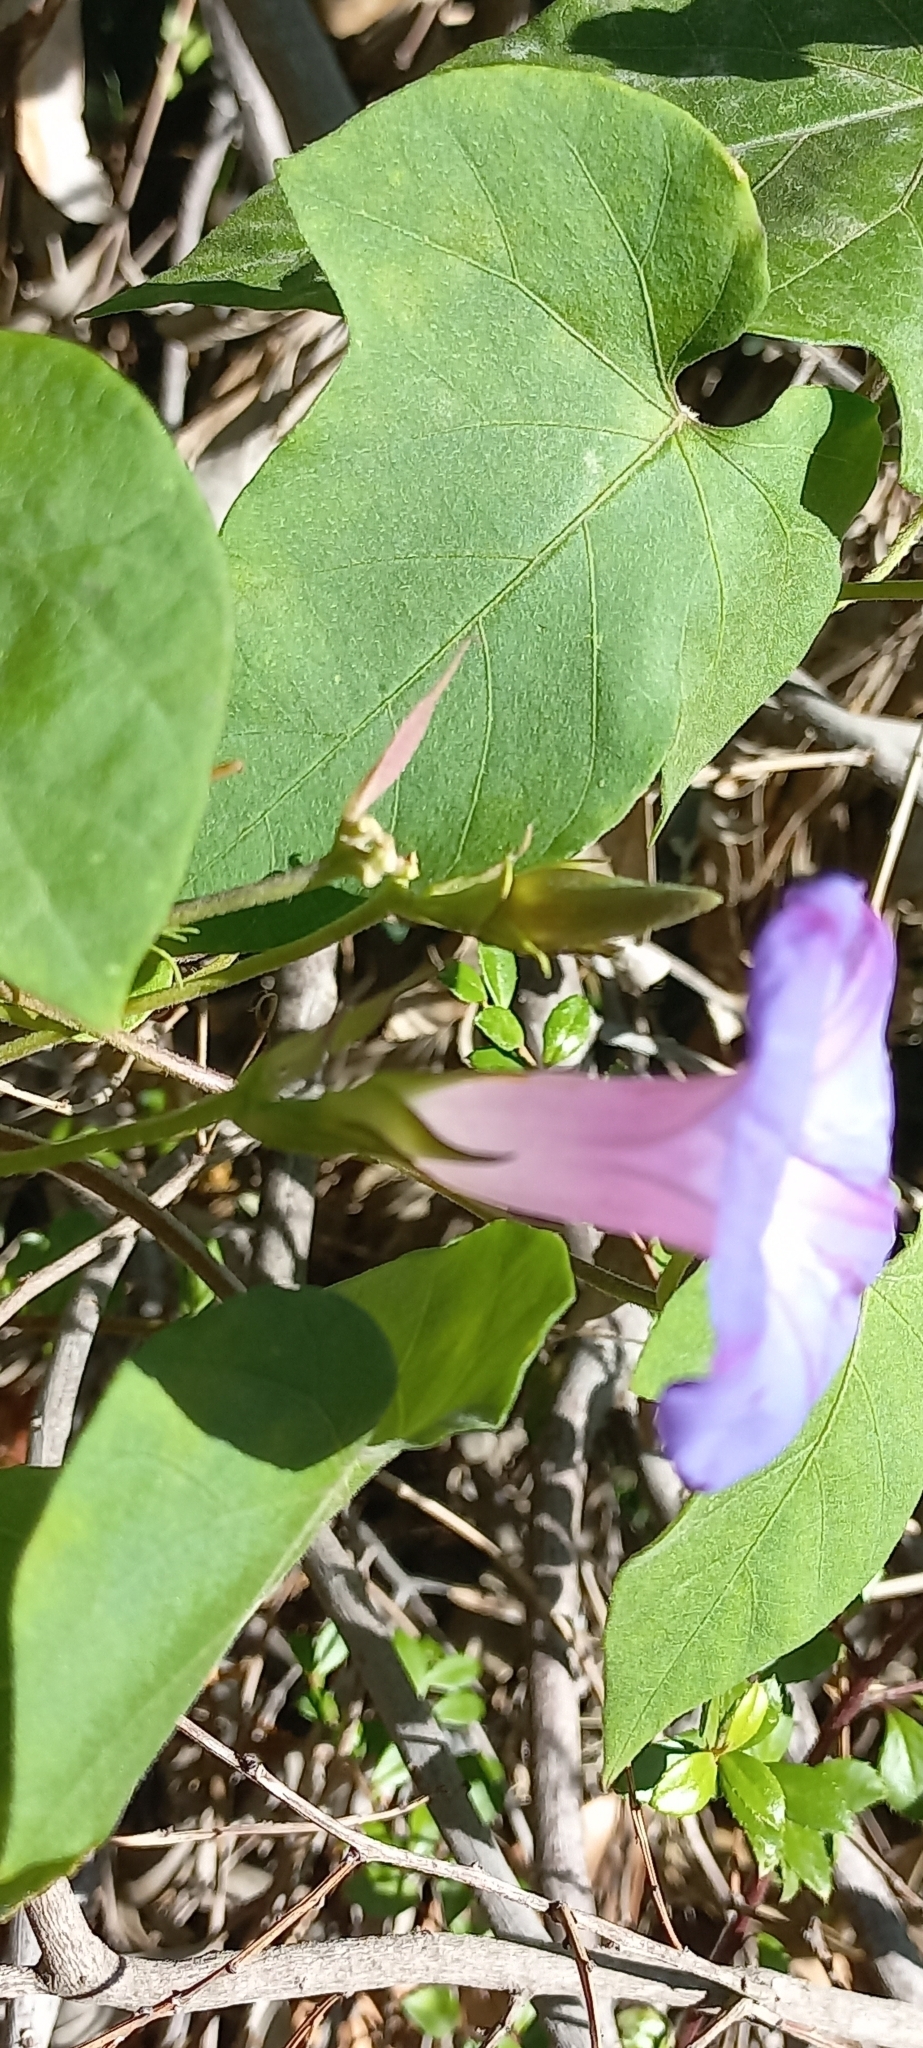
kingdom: Plantae
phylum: Tracheophyta
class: Magnoliopsida
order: Solanales
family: Convolvulaceae
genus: Ipomoea
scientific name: Ipomoea indica
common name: Blue dawnflower
